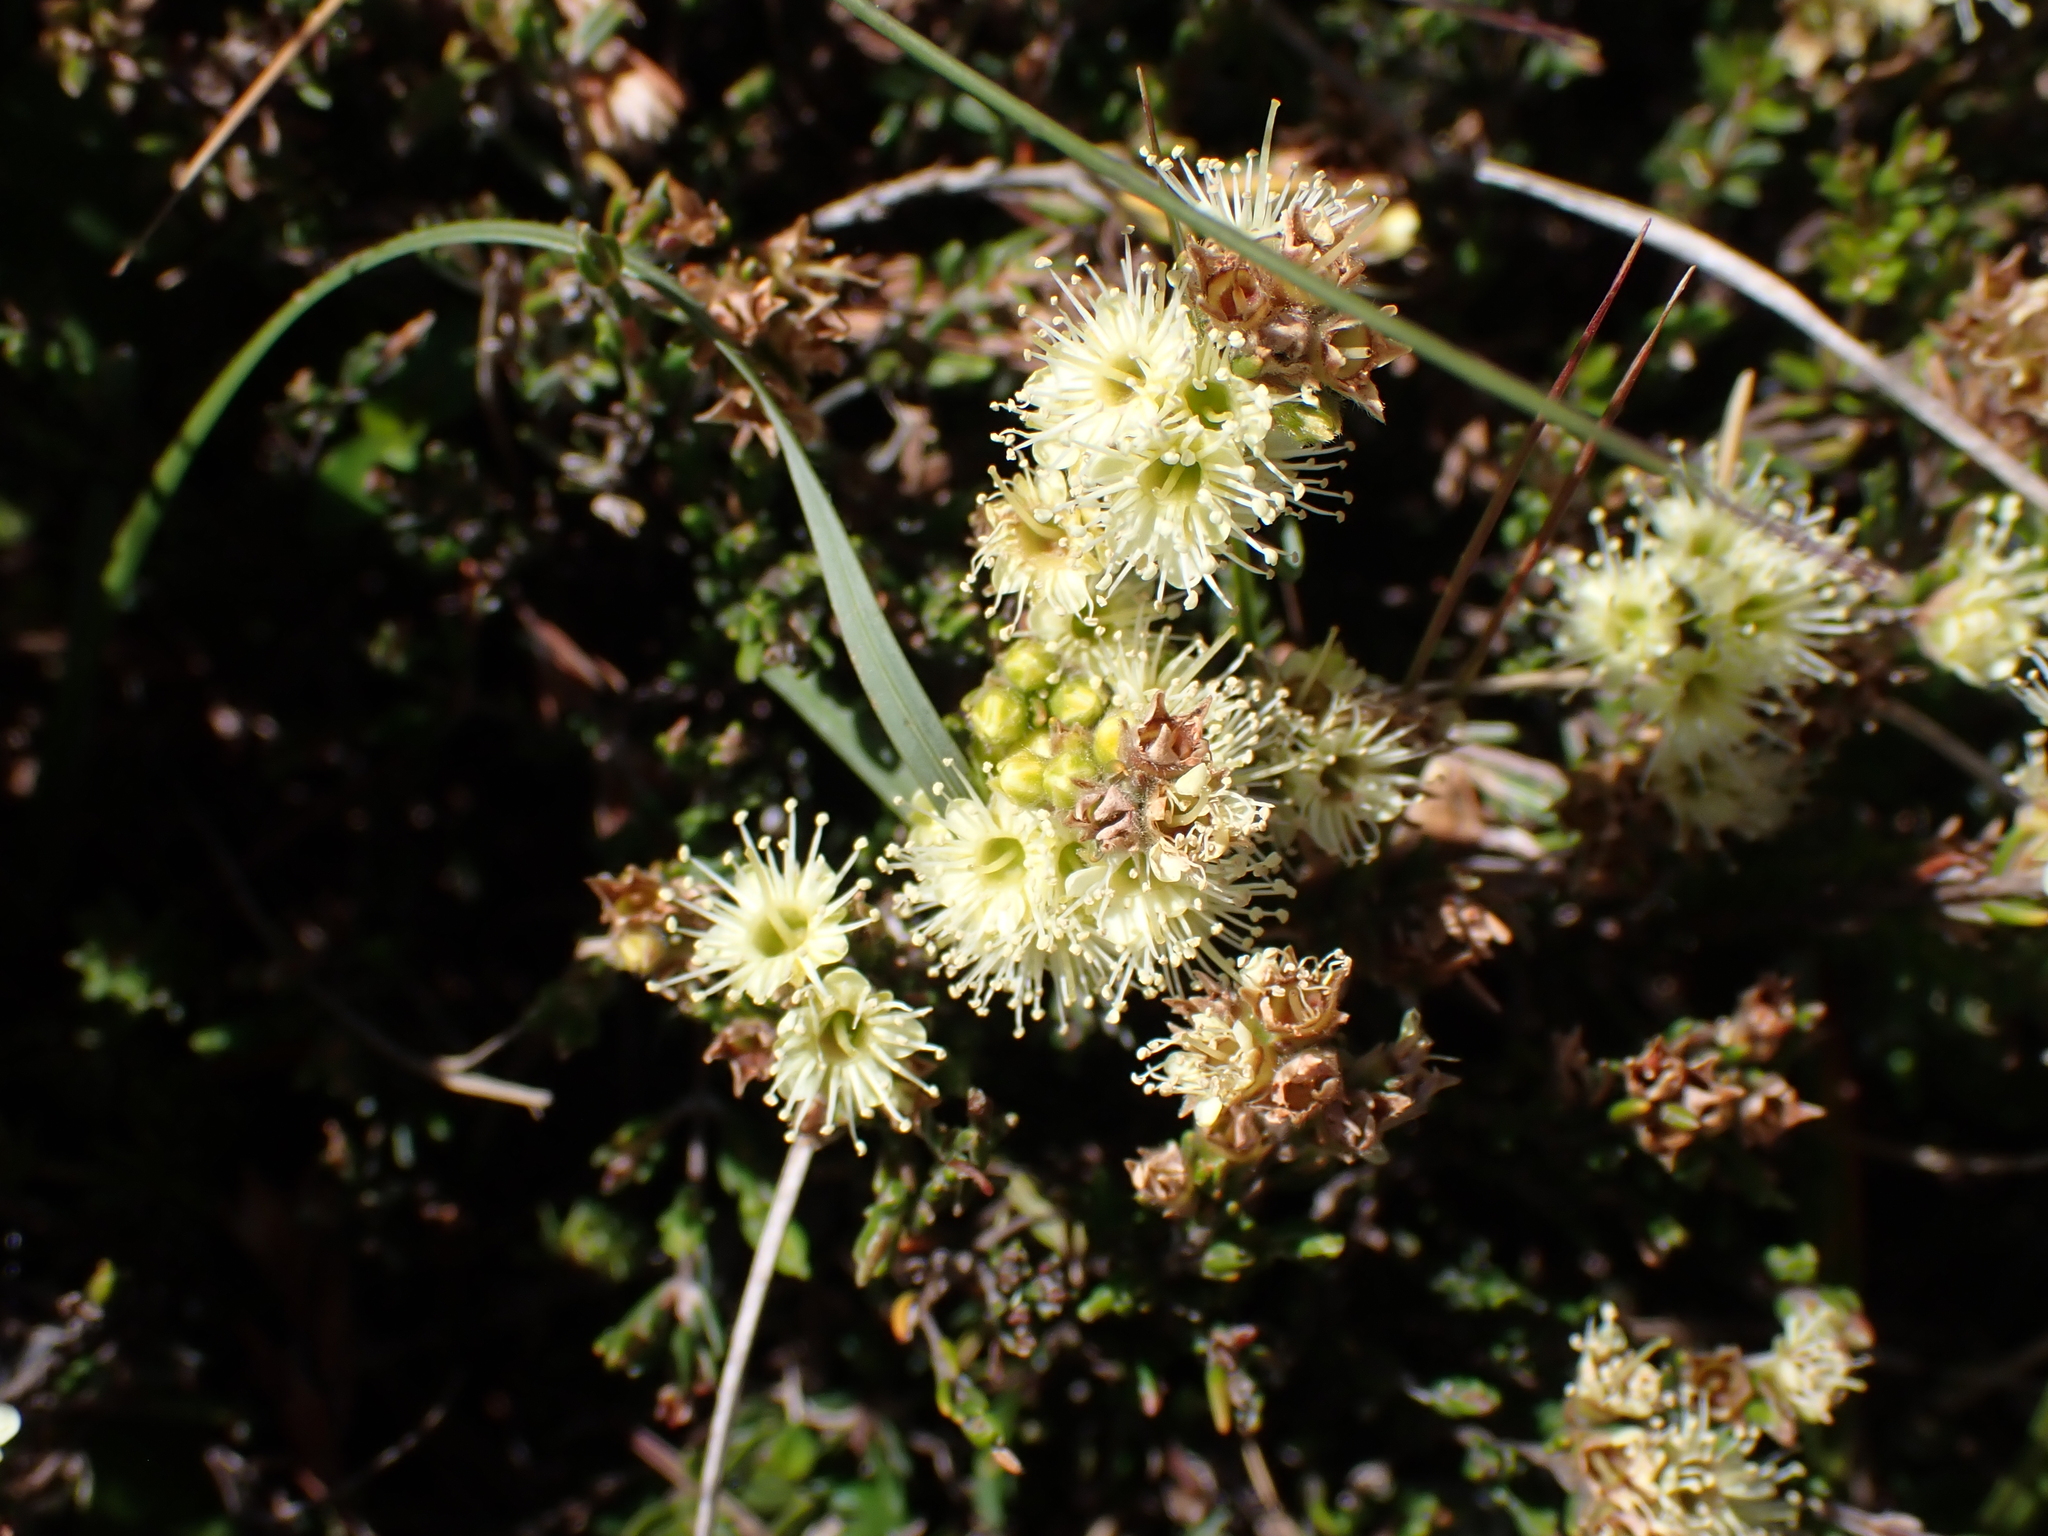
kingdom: Plantae
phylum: Tracheophyta
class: Magnoliopsida
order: Myrtales
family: Myrtaceae
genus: Kunzea
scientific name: Kunzea muelleri
